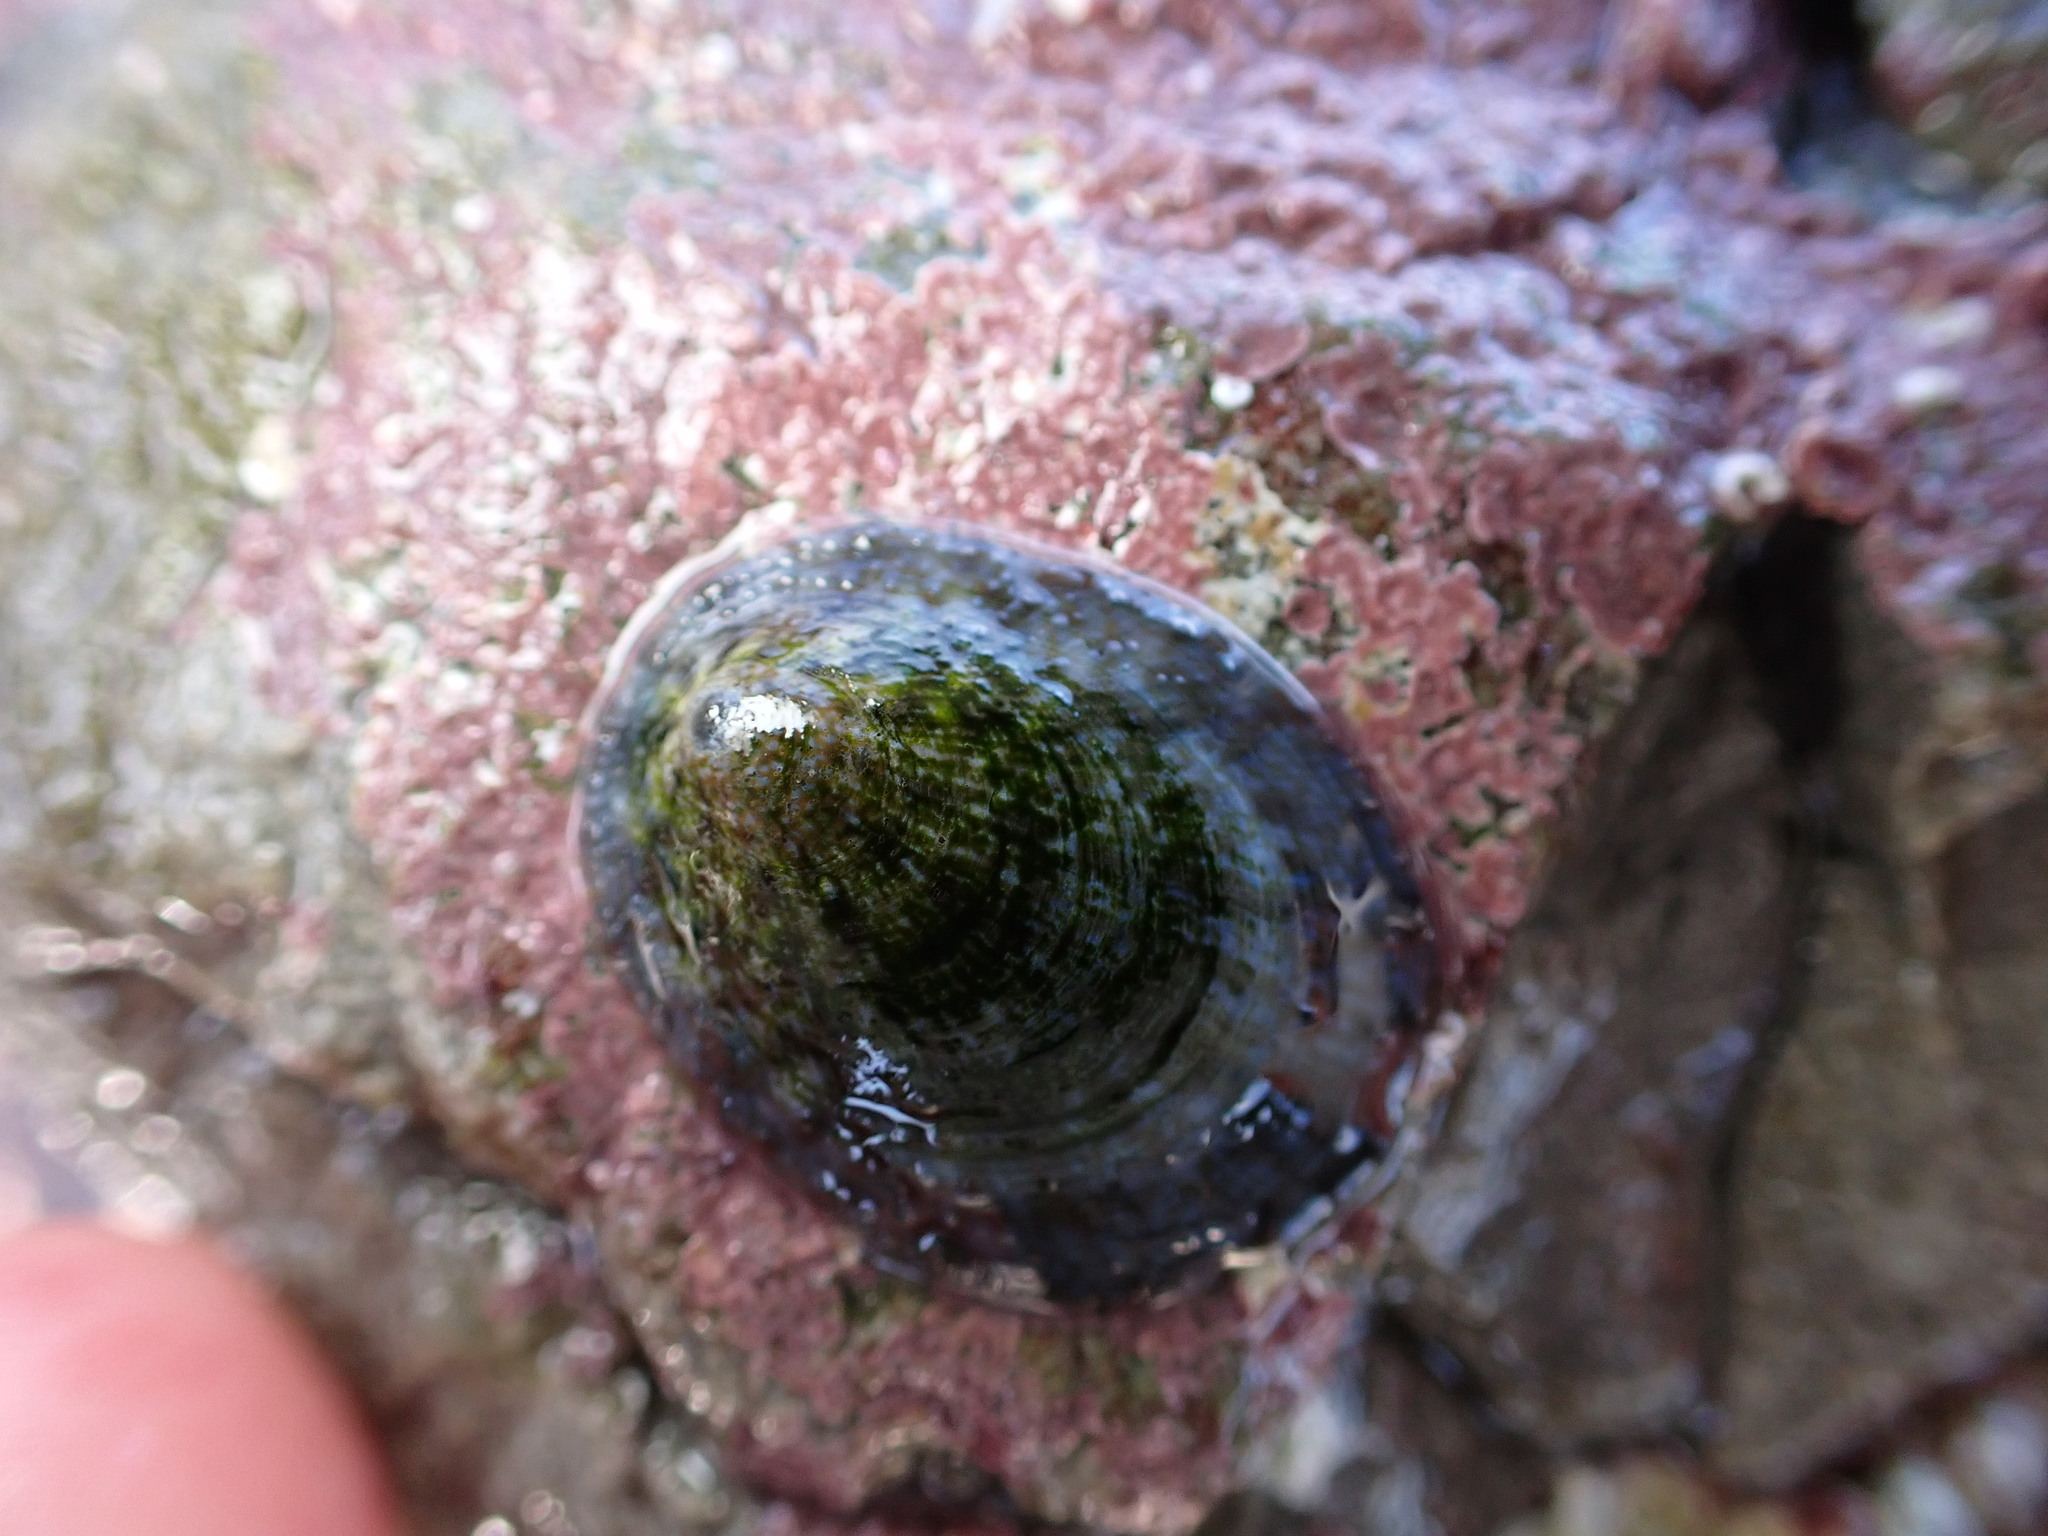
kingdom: Animalia
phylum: Mollusca
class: Gastropoda
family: Nacellidae
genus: Cellana
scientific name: Cellana radians
